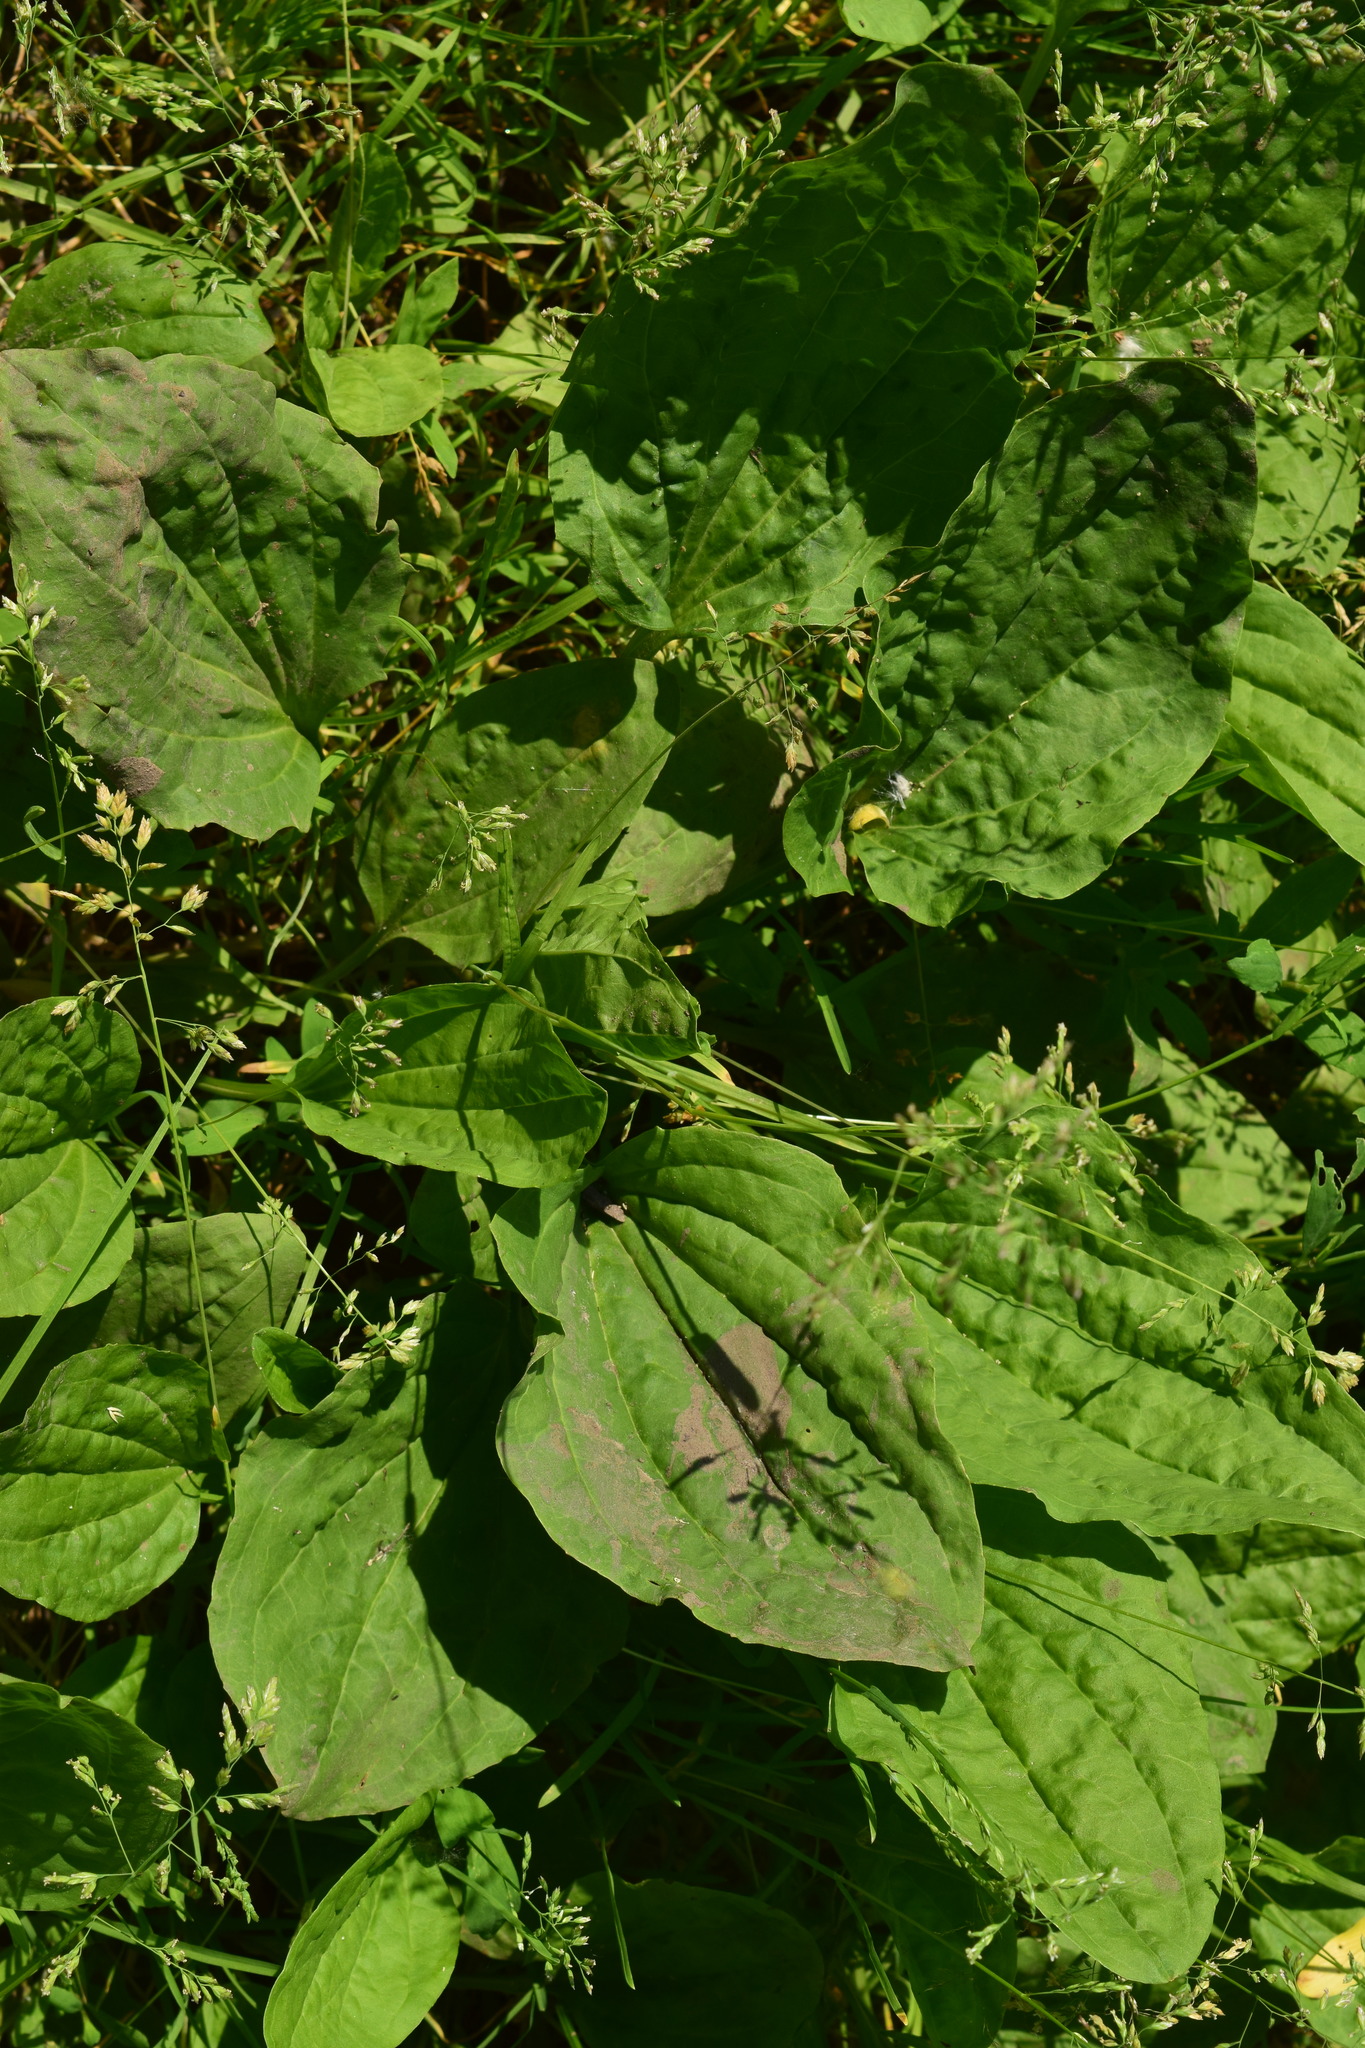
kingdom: Plantae
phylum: Tracheophyta
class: Magnoliopsida
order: Lamiales
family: Plantaginaceae
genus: Plantago
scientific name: Plantago major
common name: Common plantain
